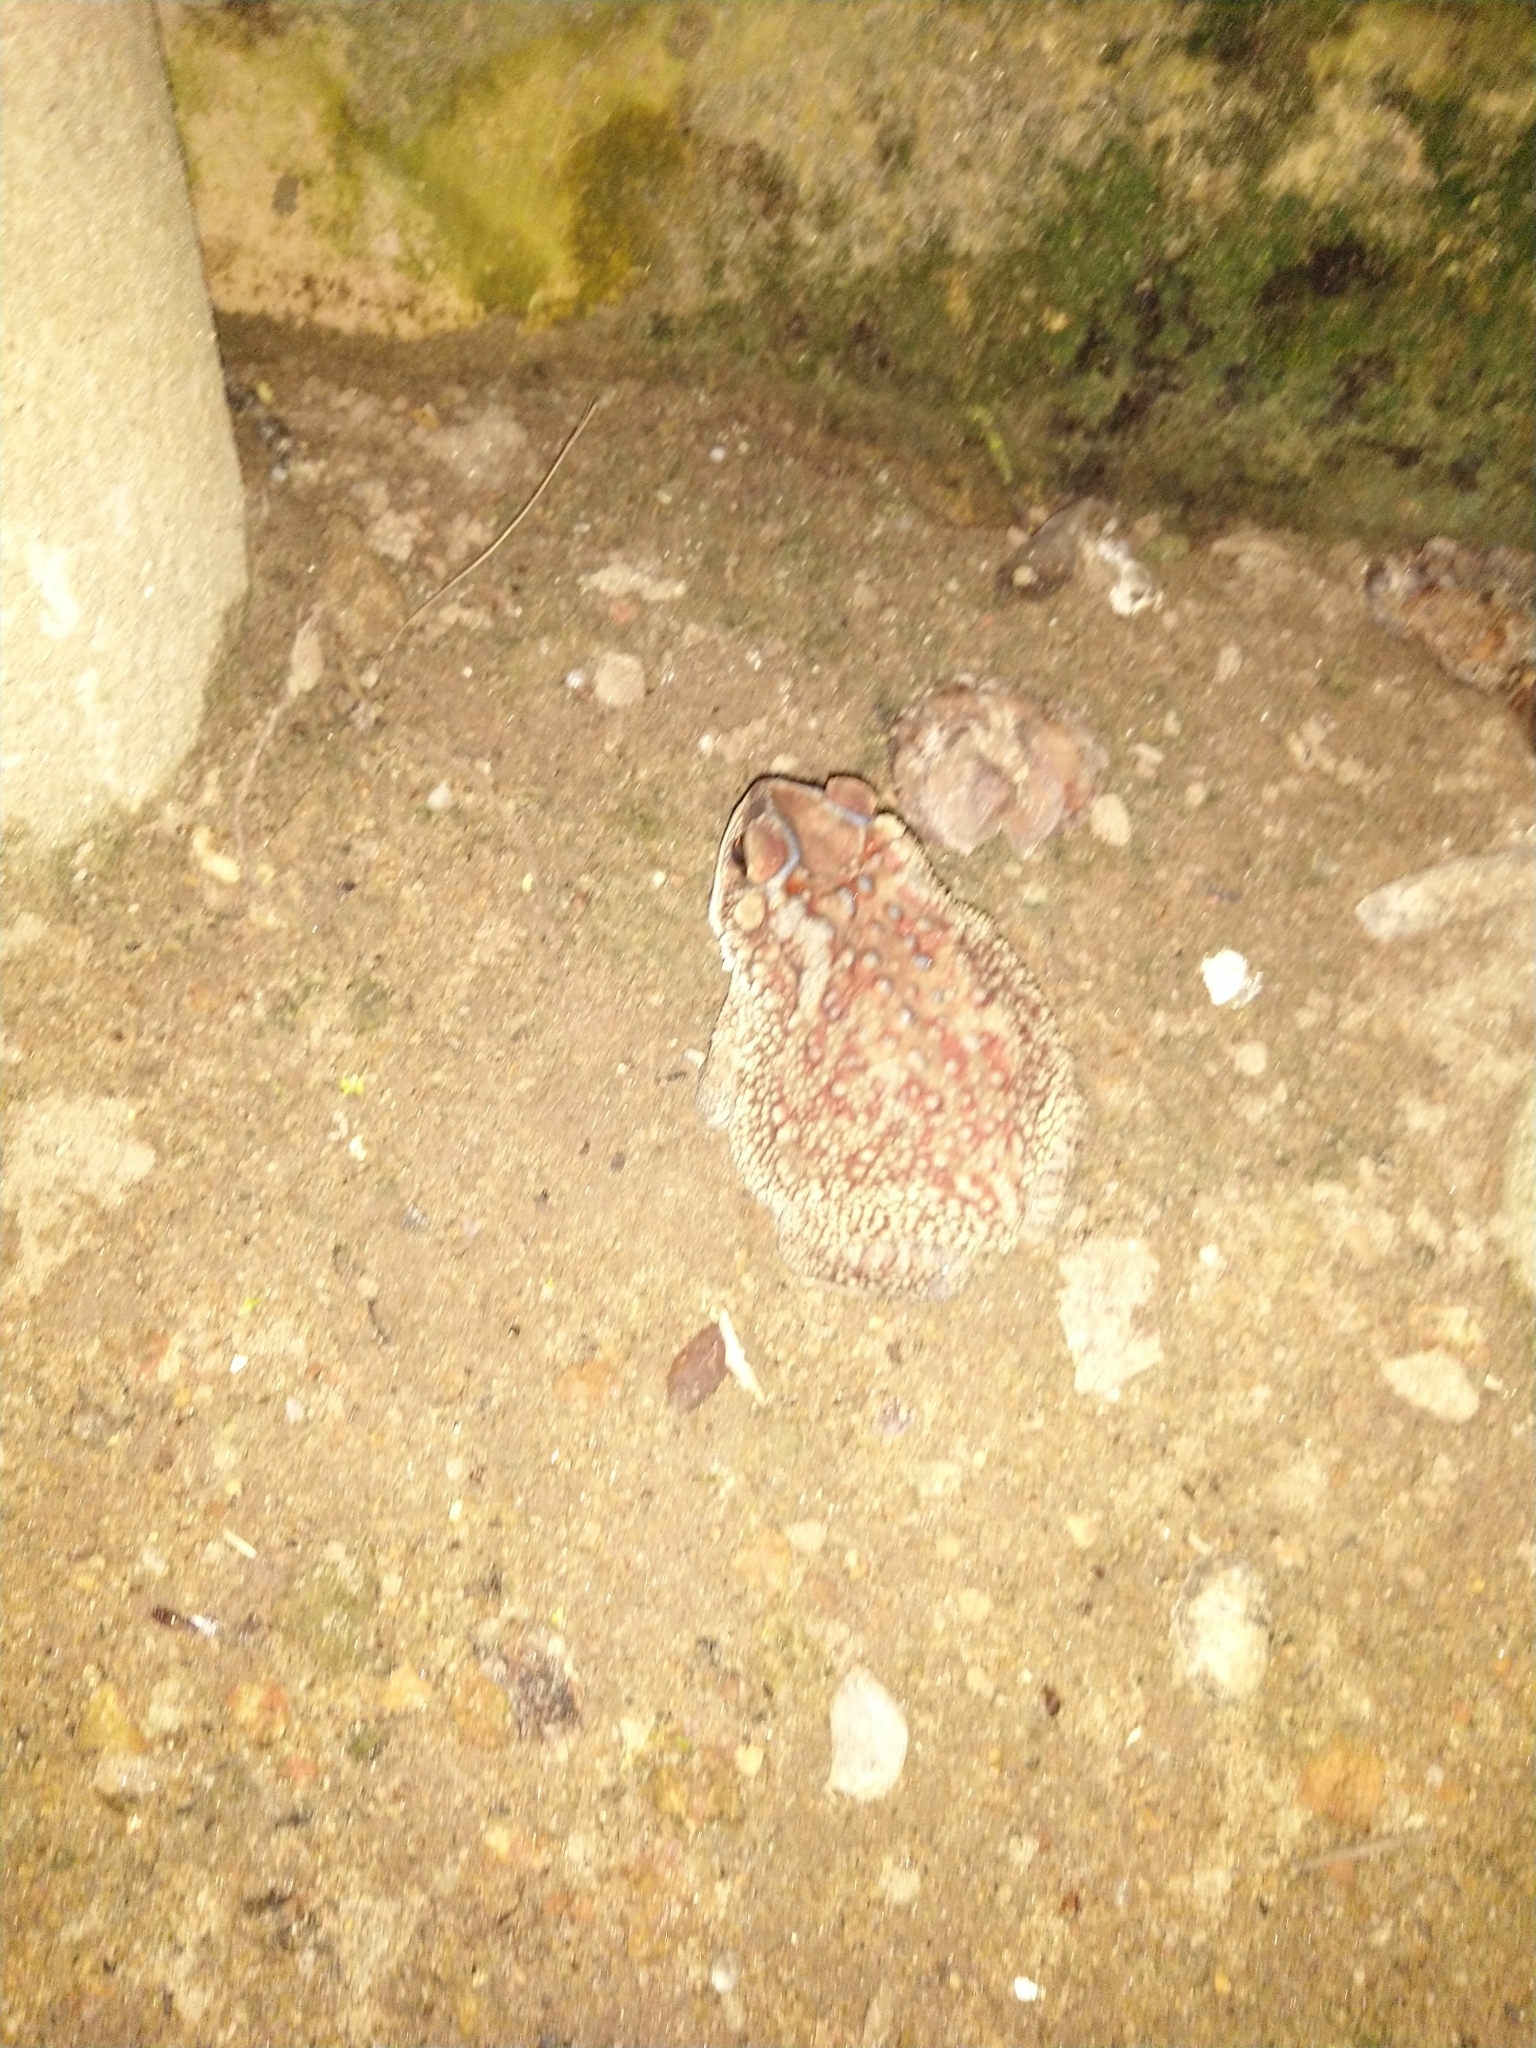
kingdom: Animalia
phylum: Chordata
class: Amphibia
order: Anura
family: Bufonidae
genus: Duttaphrynus
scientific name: Duttaphrynus melanostictus
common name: Common sunda toad
